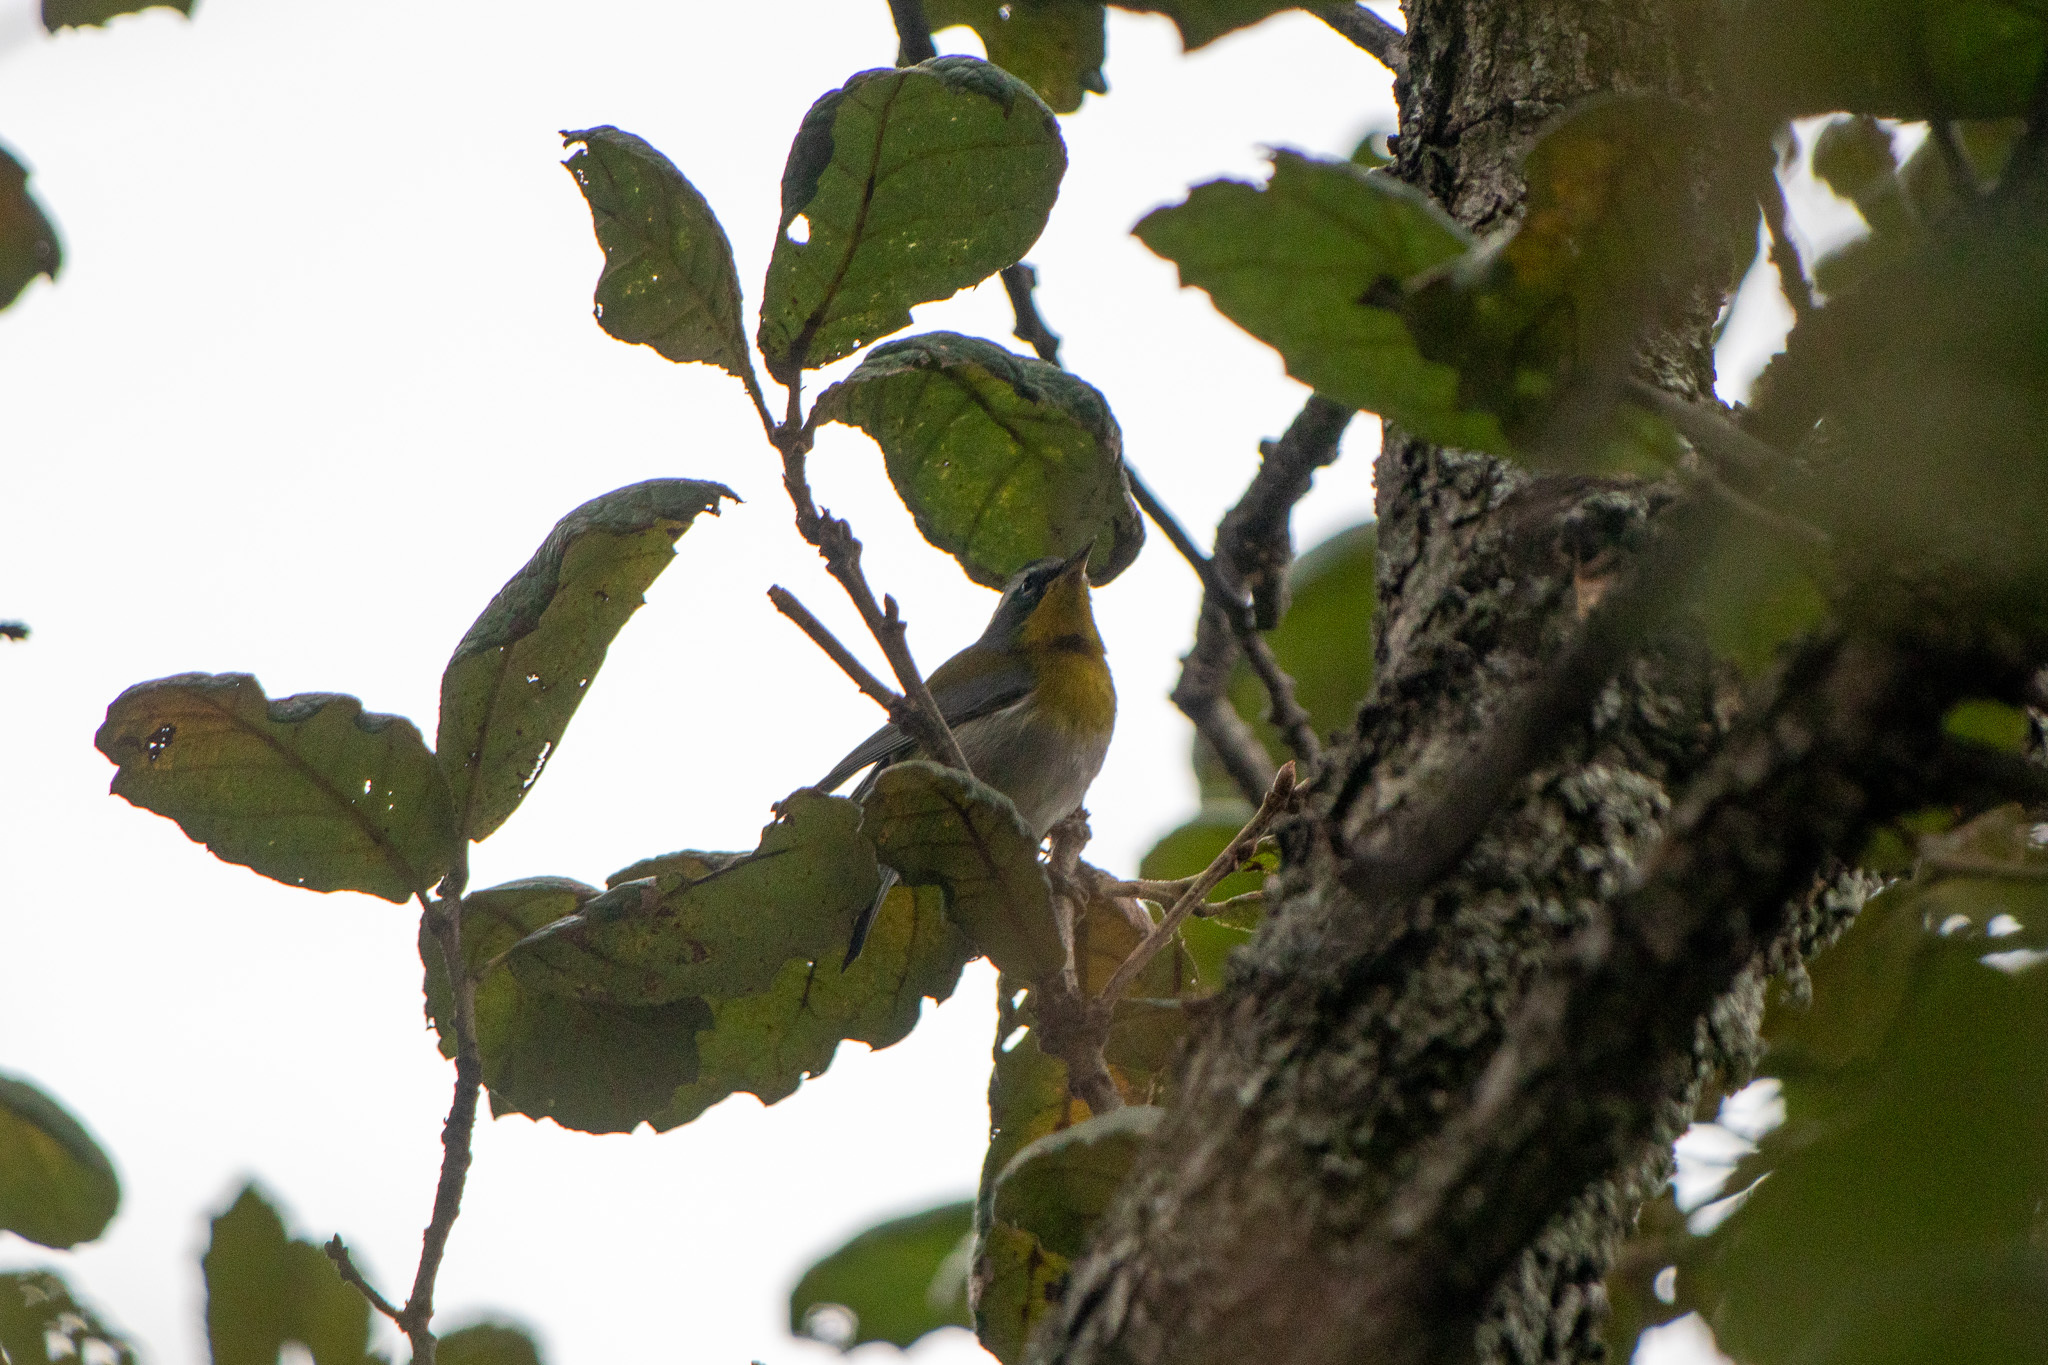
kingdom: Animalia
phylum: Chordata
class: Aves
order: Passeriformes
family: Parulidae
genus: Oreothlypis
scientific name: Oreothlypis superciliosa
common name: Crescent-chested warbler
